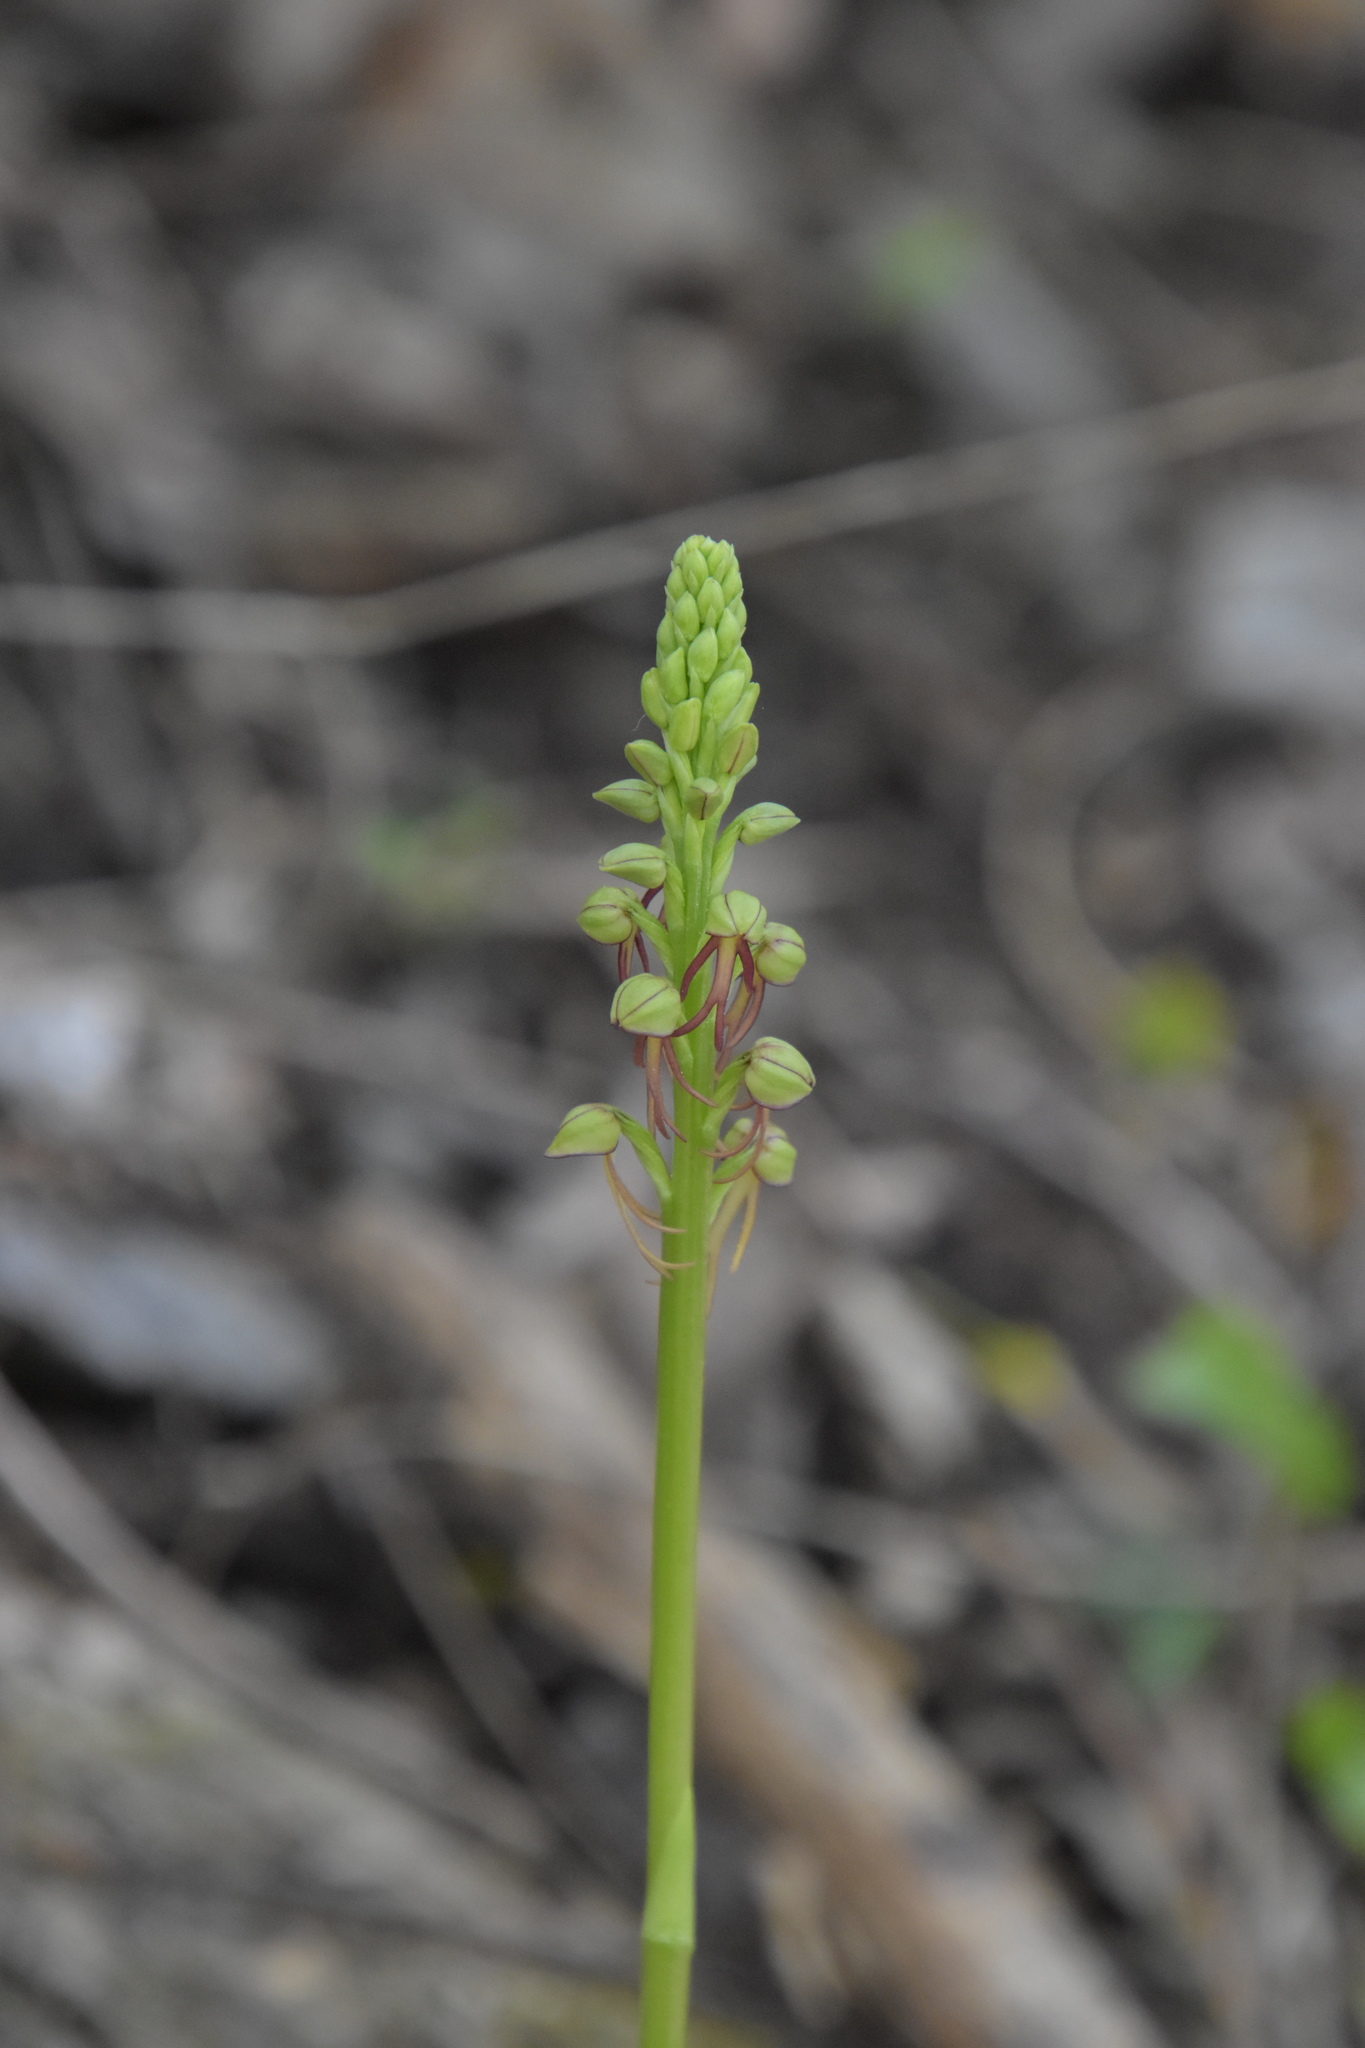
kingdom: Plantae
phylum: Tracheophyta
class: Liliopsida
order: Asparagales
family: Orchidaceae
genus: Orchis
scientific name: Orchis anthropophora
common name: Man orchid
